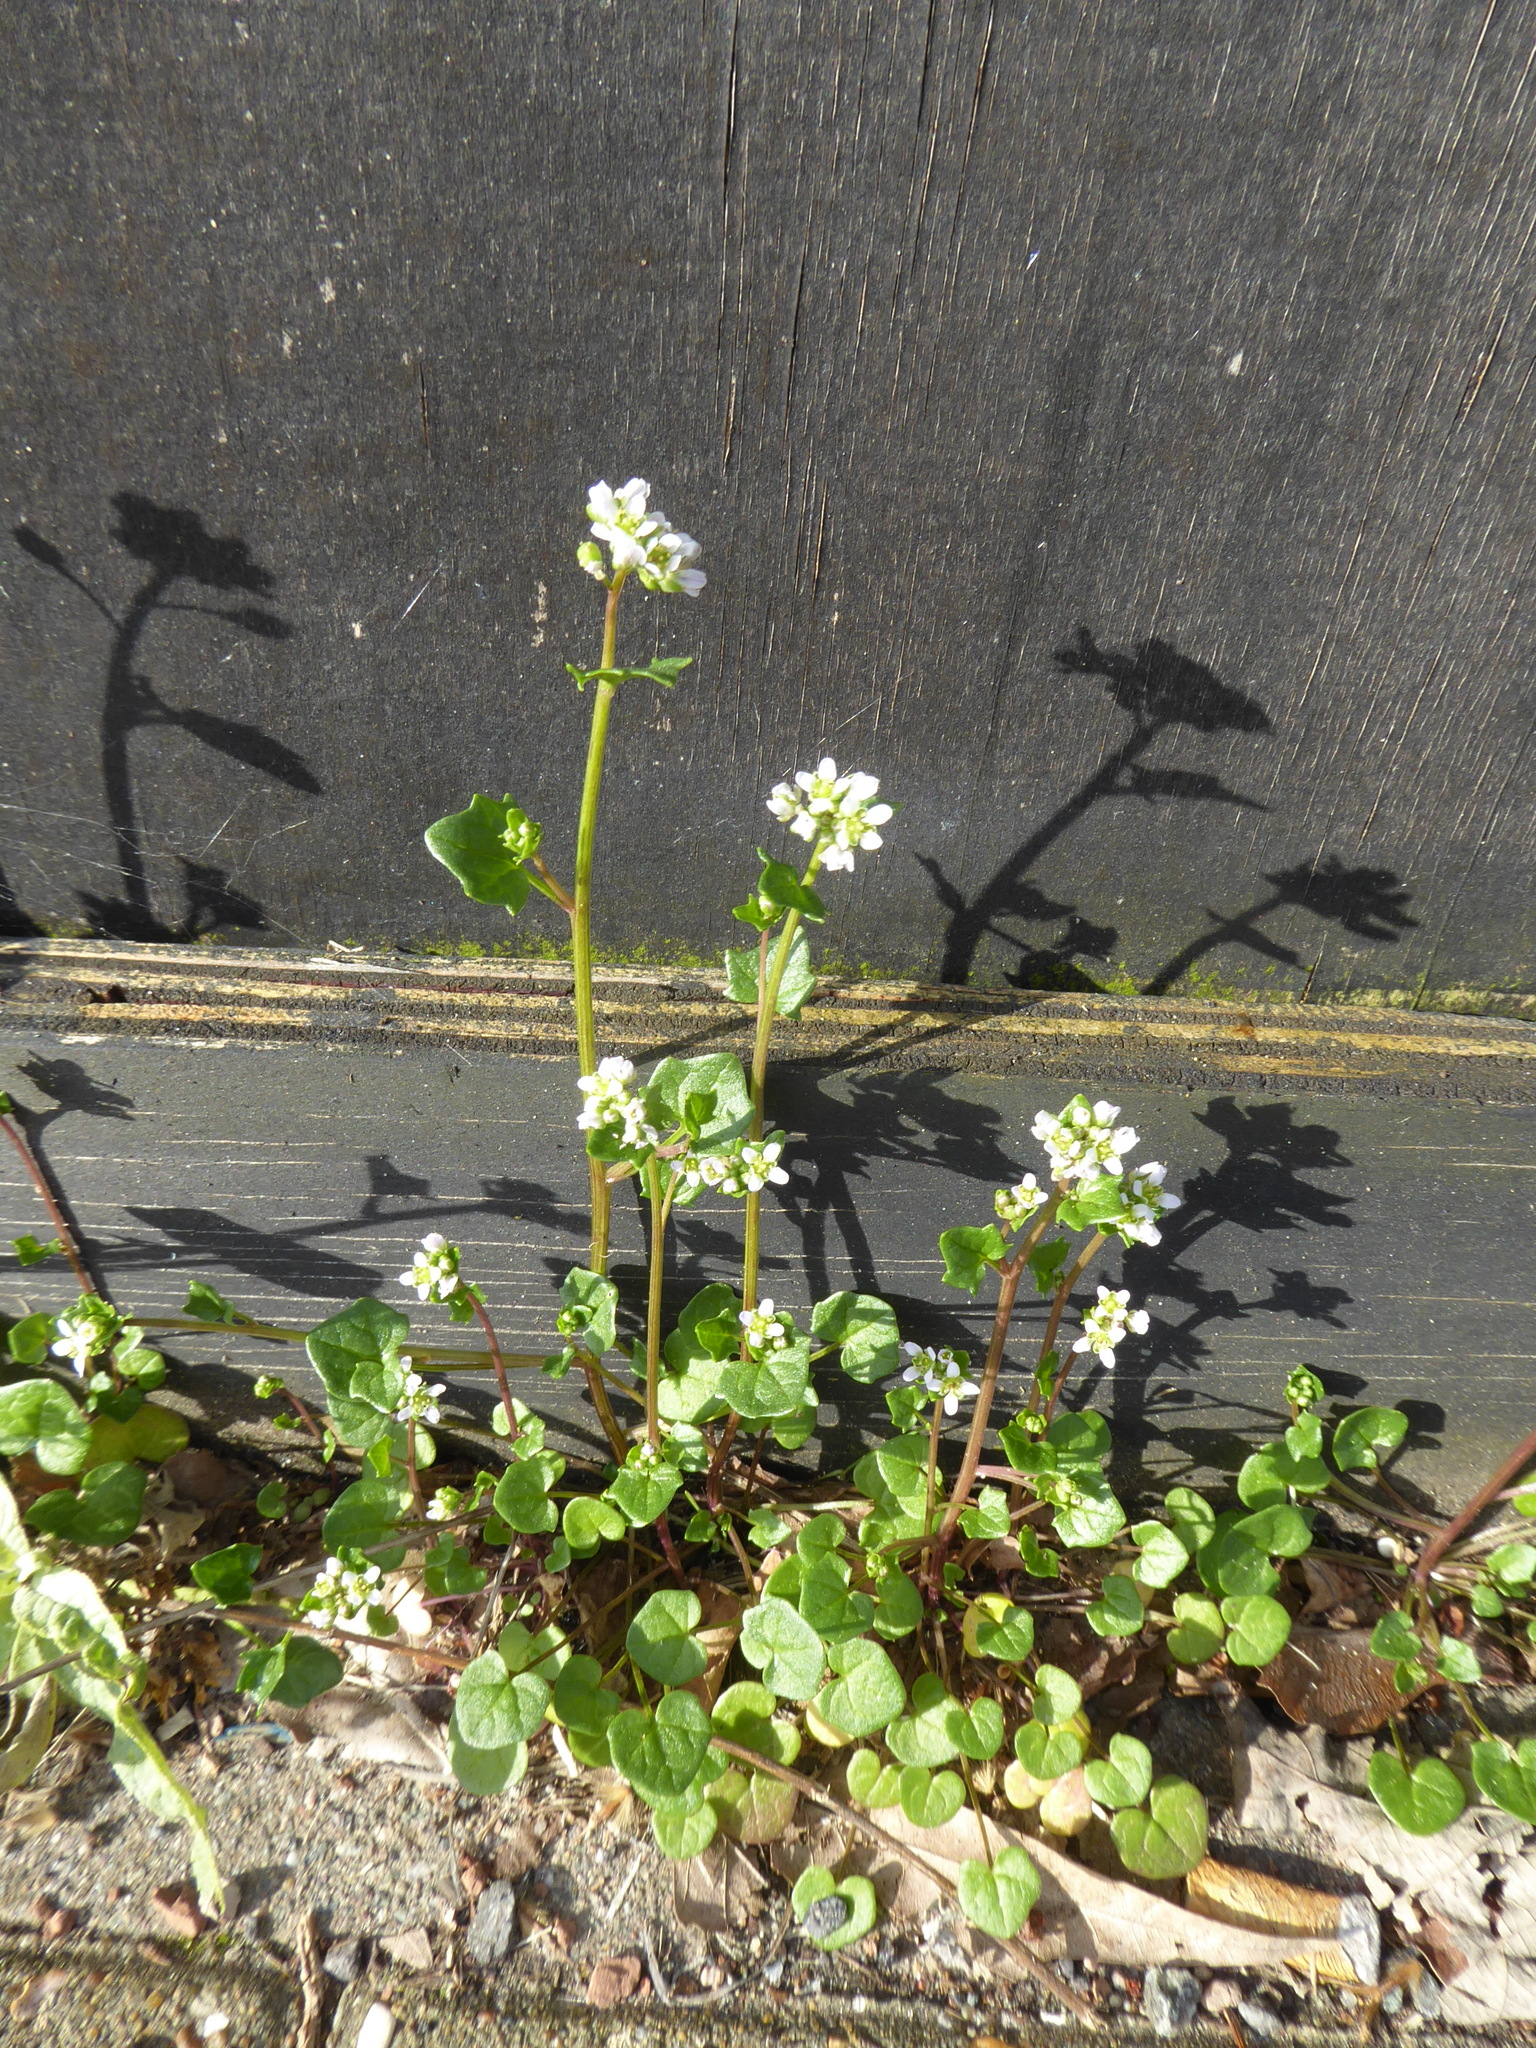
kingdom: Plantae
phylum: Tracheophyta
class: Magnoliopsida
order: Brassicales
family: Brassicaceae
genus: Cochlearia
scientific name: Cochlearia danica
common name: Early scurvygrass
